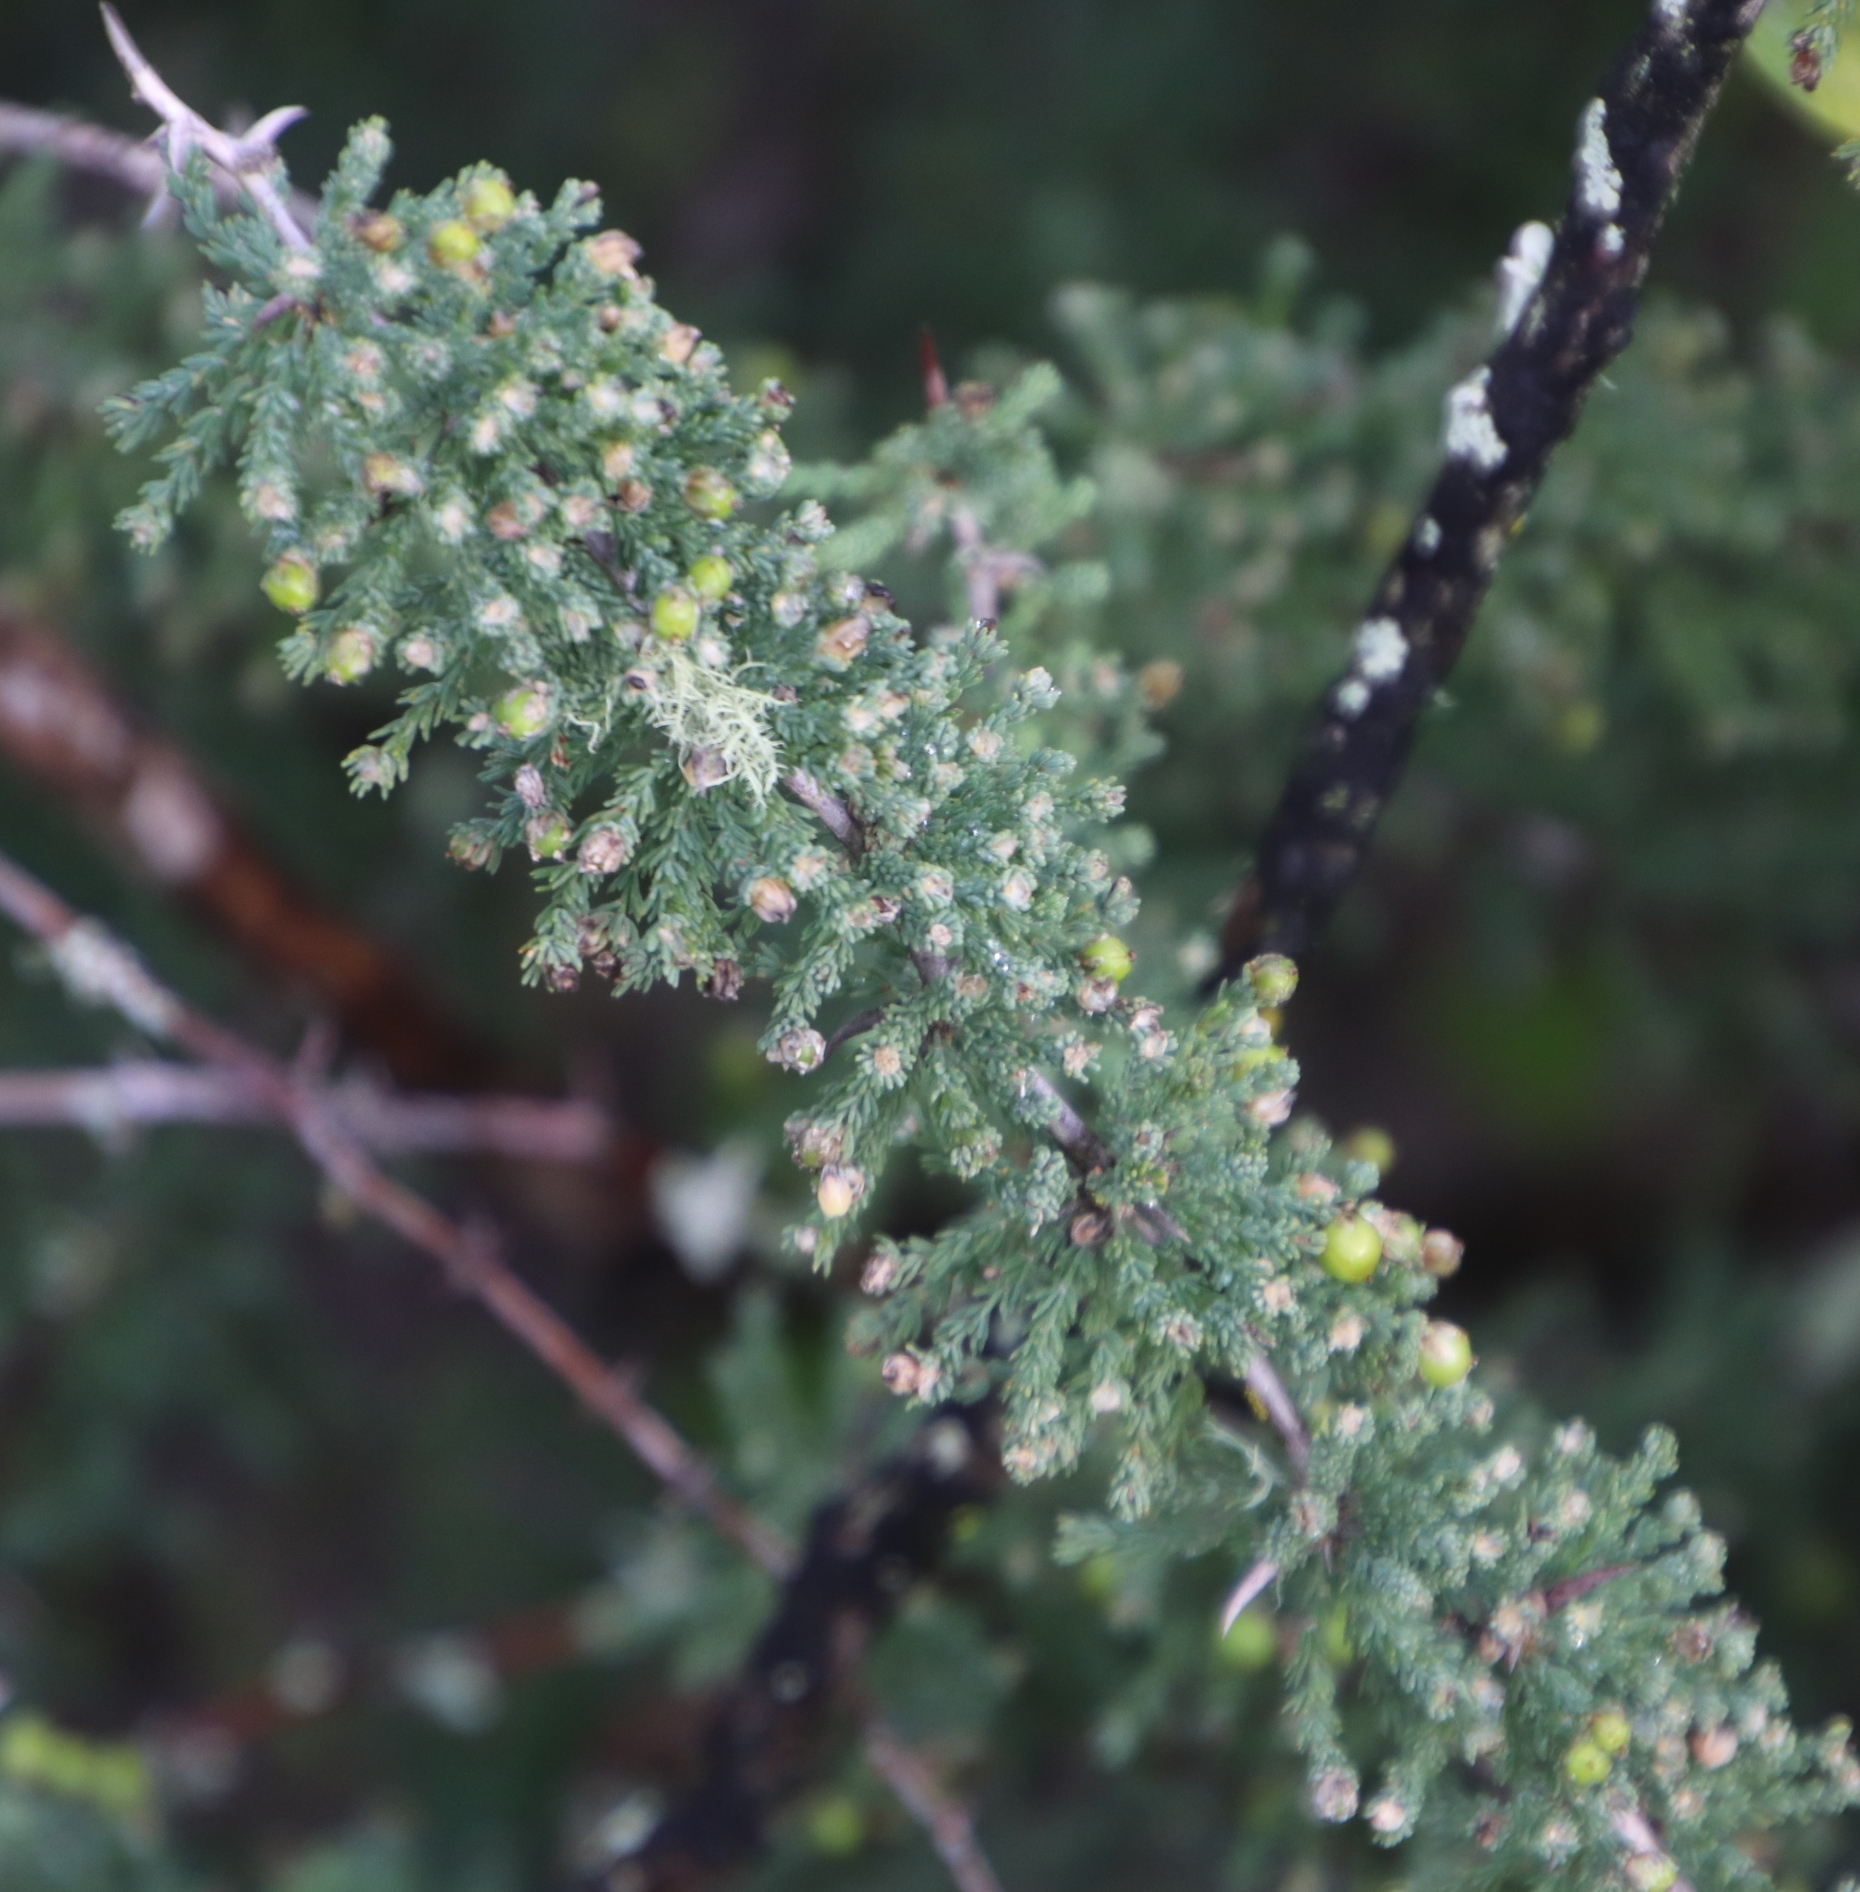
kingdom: Plantae
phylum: Tracheophyta
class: Liliopsida
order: Asparagales
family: Asparagaceae
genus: Asparagus
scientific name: Asparagus capensis
